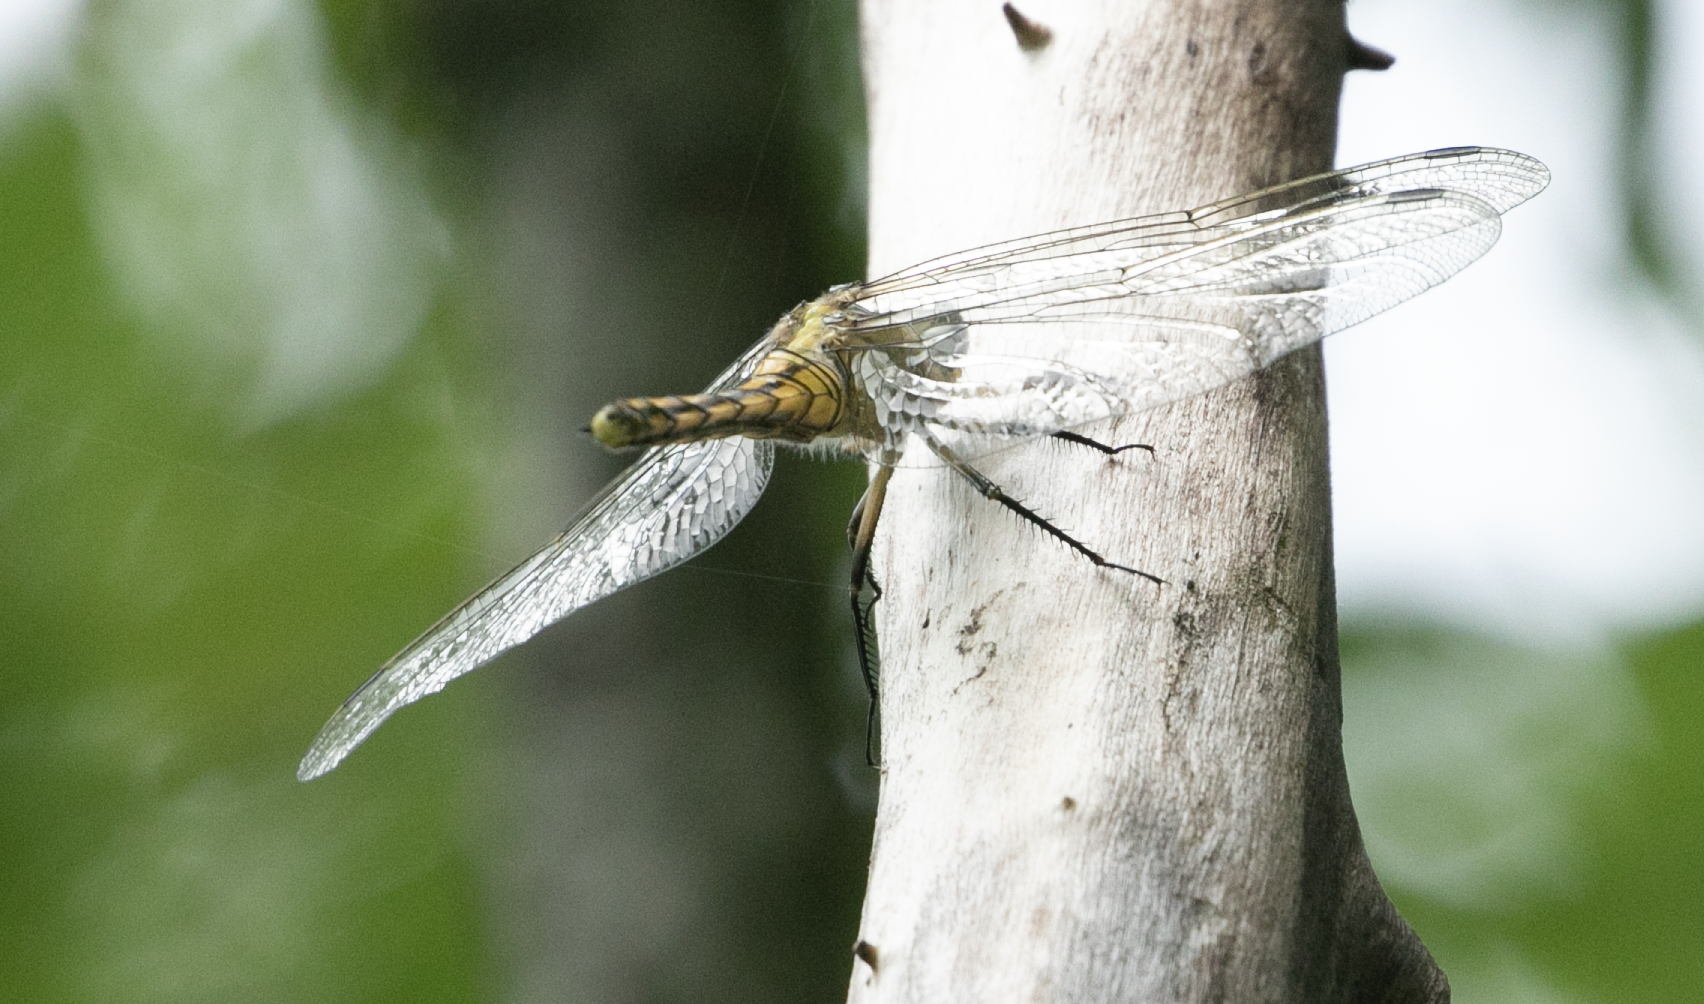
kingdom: Animalia
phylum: Arthropoda
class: Insecta
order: Odonata
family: Libellulidae
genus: Orthetrum
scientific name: Orthetrum cancellatum
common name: Black-tailed skimmer
